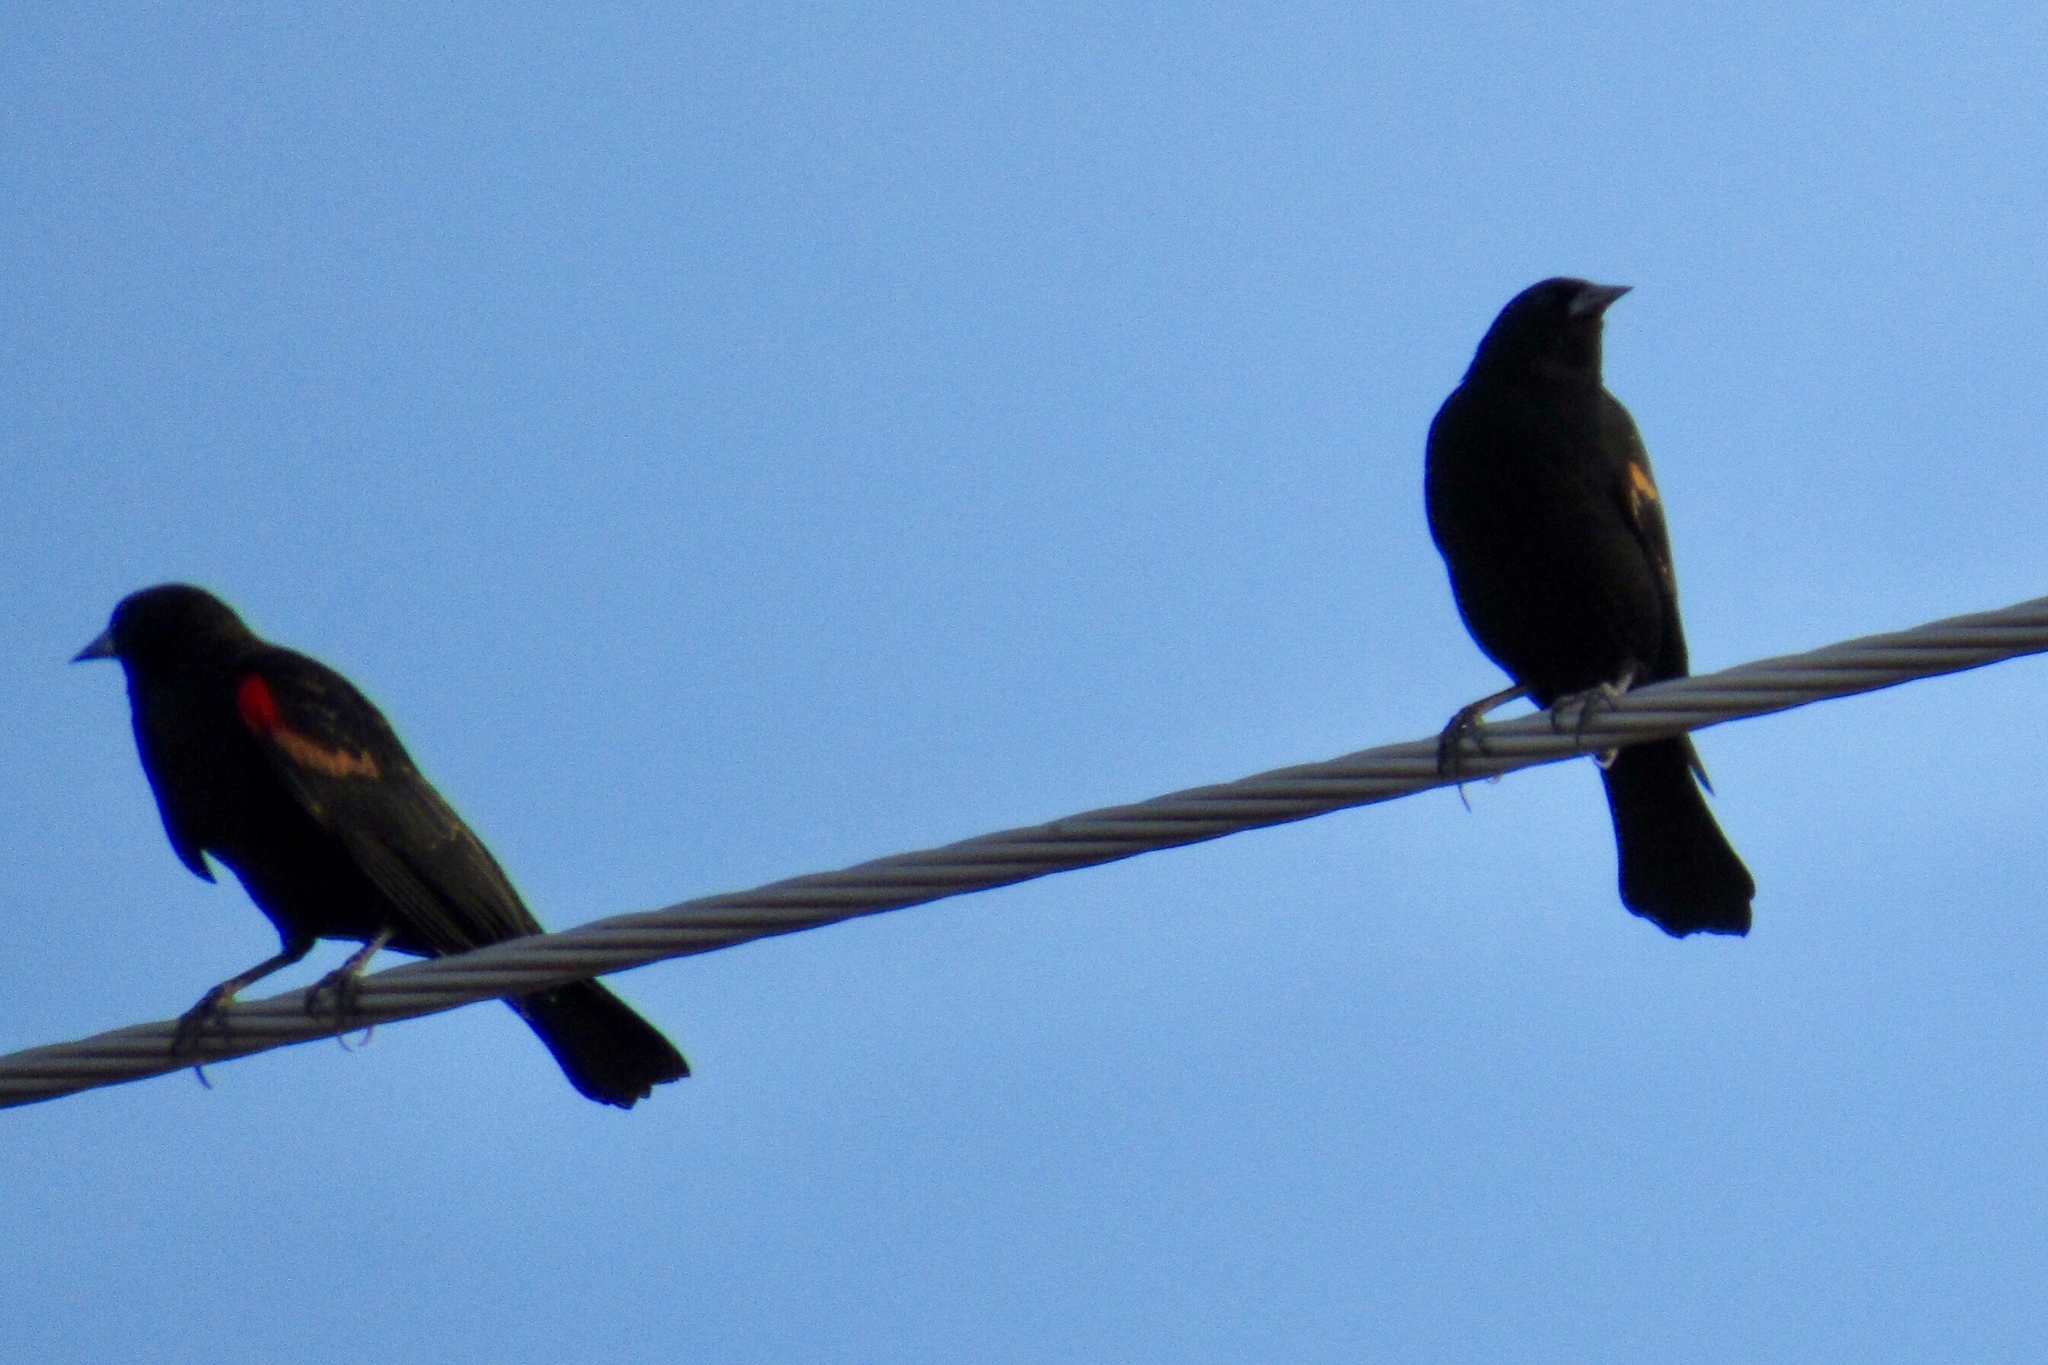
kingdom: Animalia
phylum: Chordata
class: Aves
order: Passeriformes
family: Icteridae
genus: Agelaius
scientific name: Agelaius phoeniceus
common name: Red-winged blackbird
